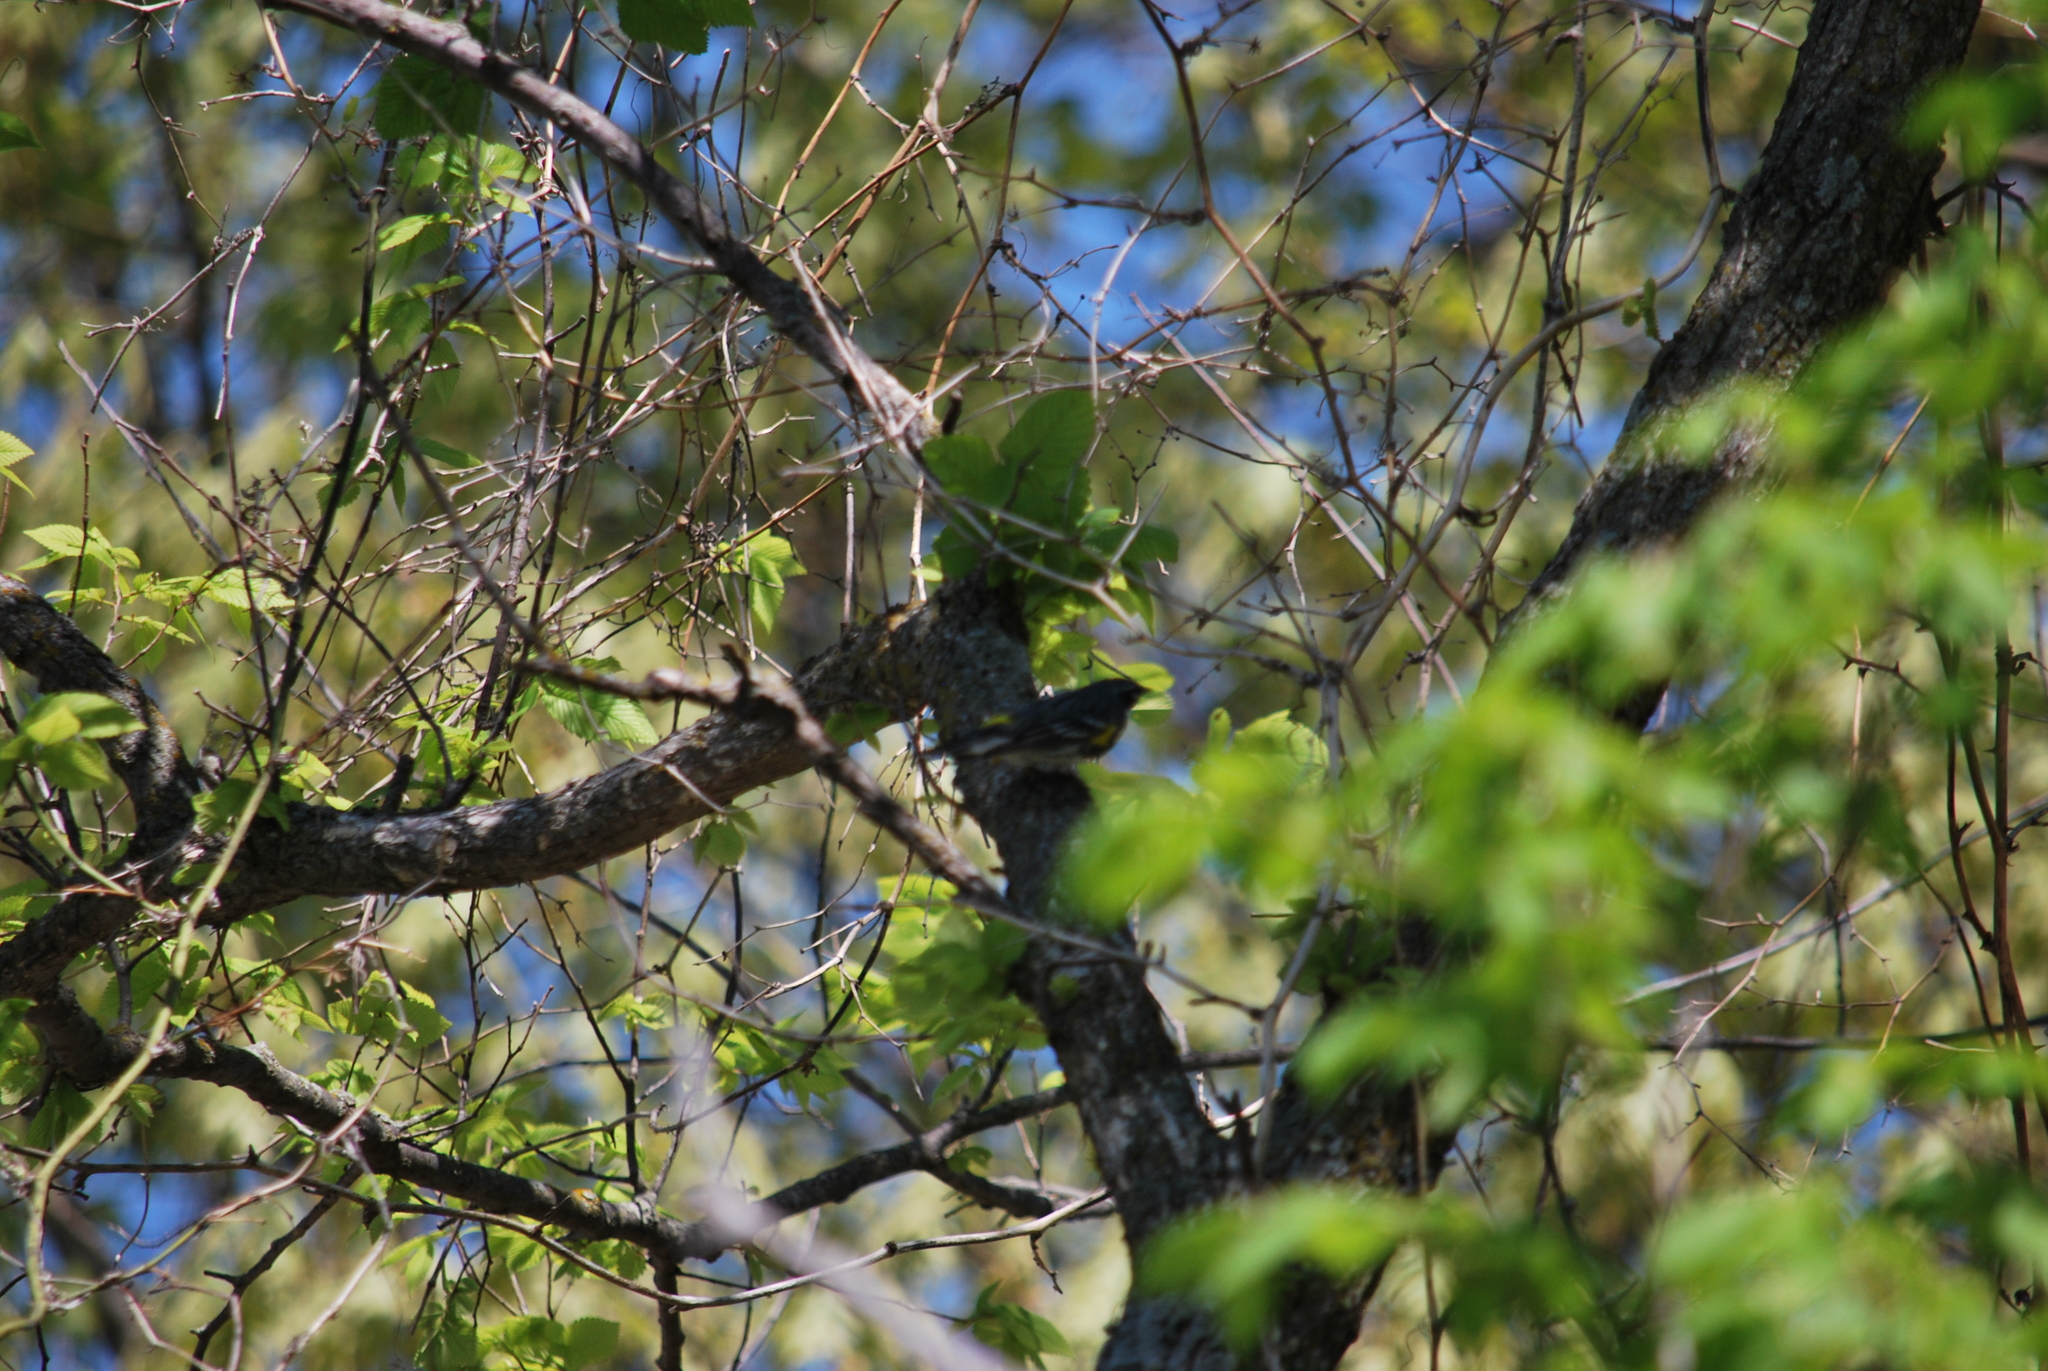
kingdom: Animalia
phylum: Chordata
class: Aves
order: Passeriformes
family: Parulidae
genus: Setophaga
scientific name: Setophaga coronata
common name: Myrtle warbler
